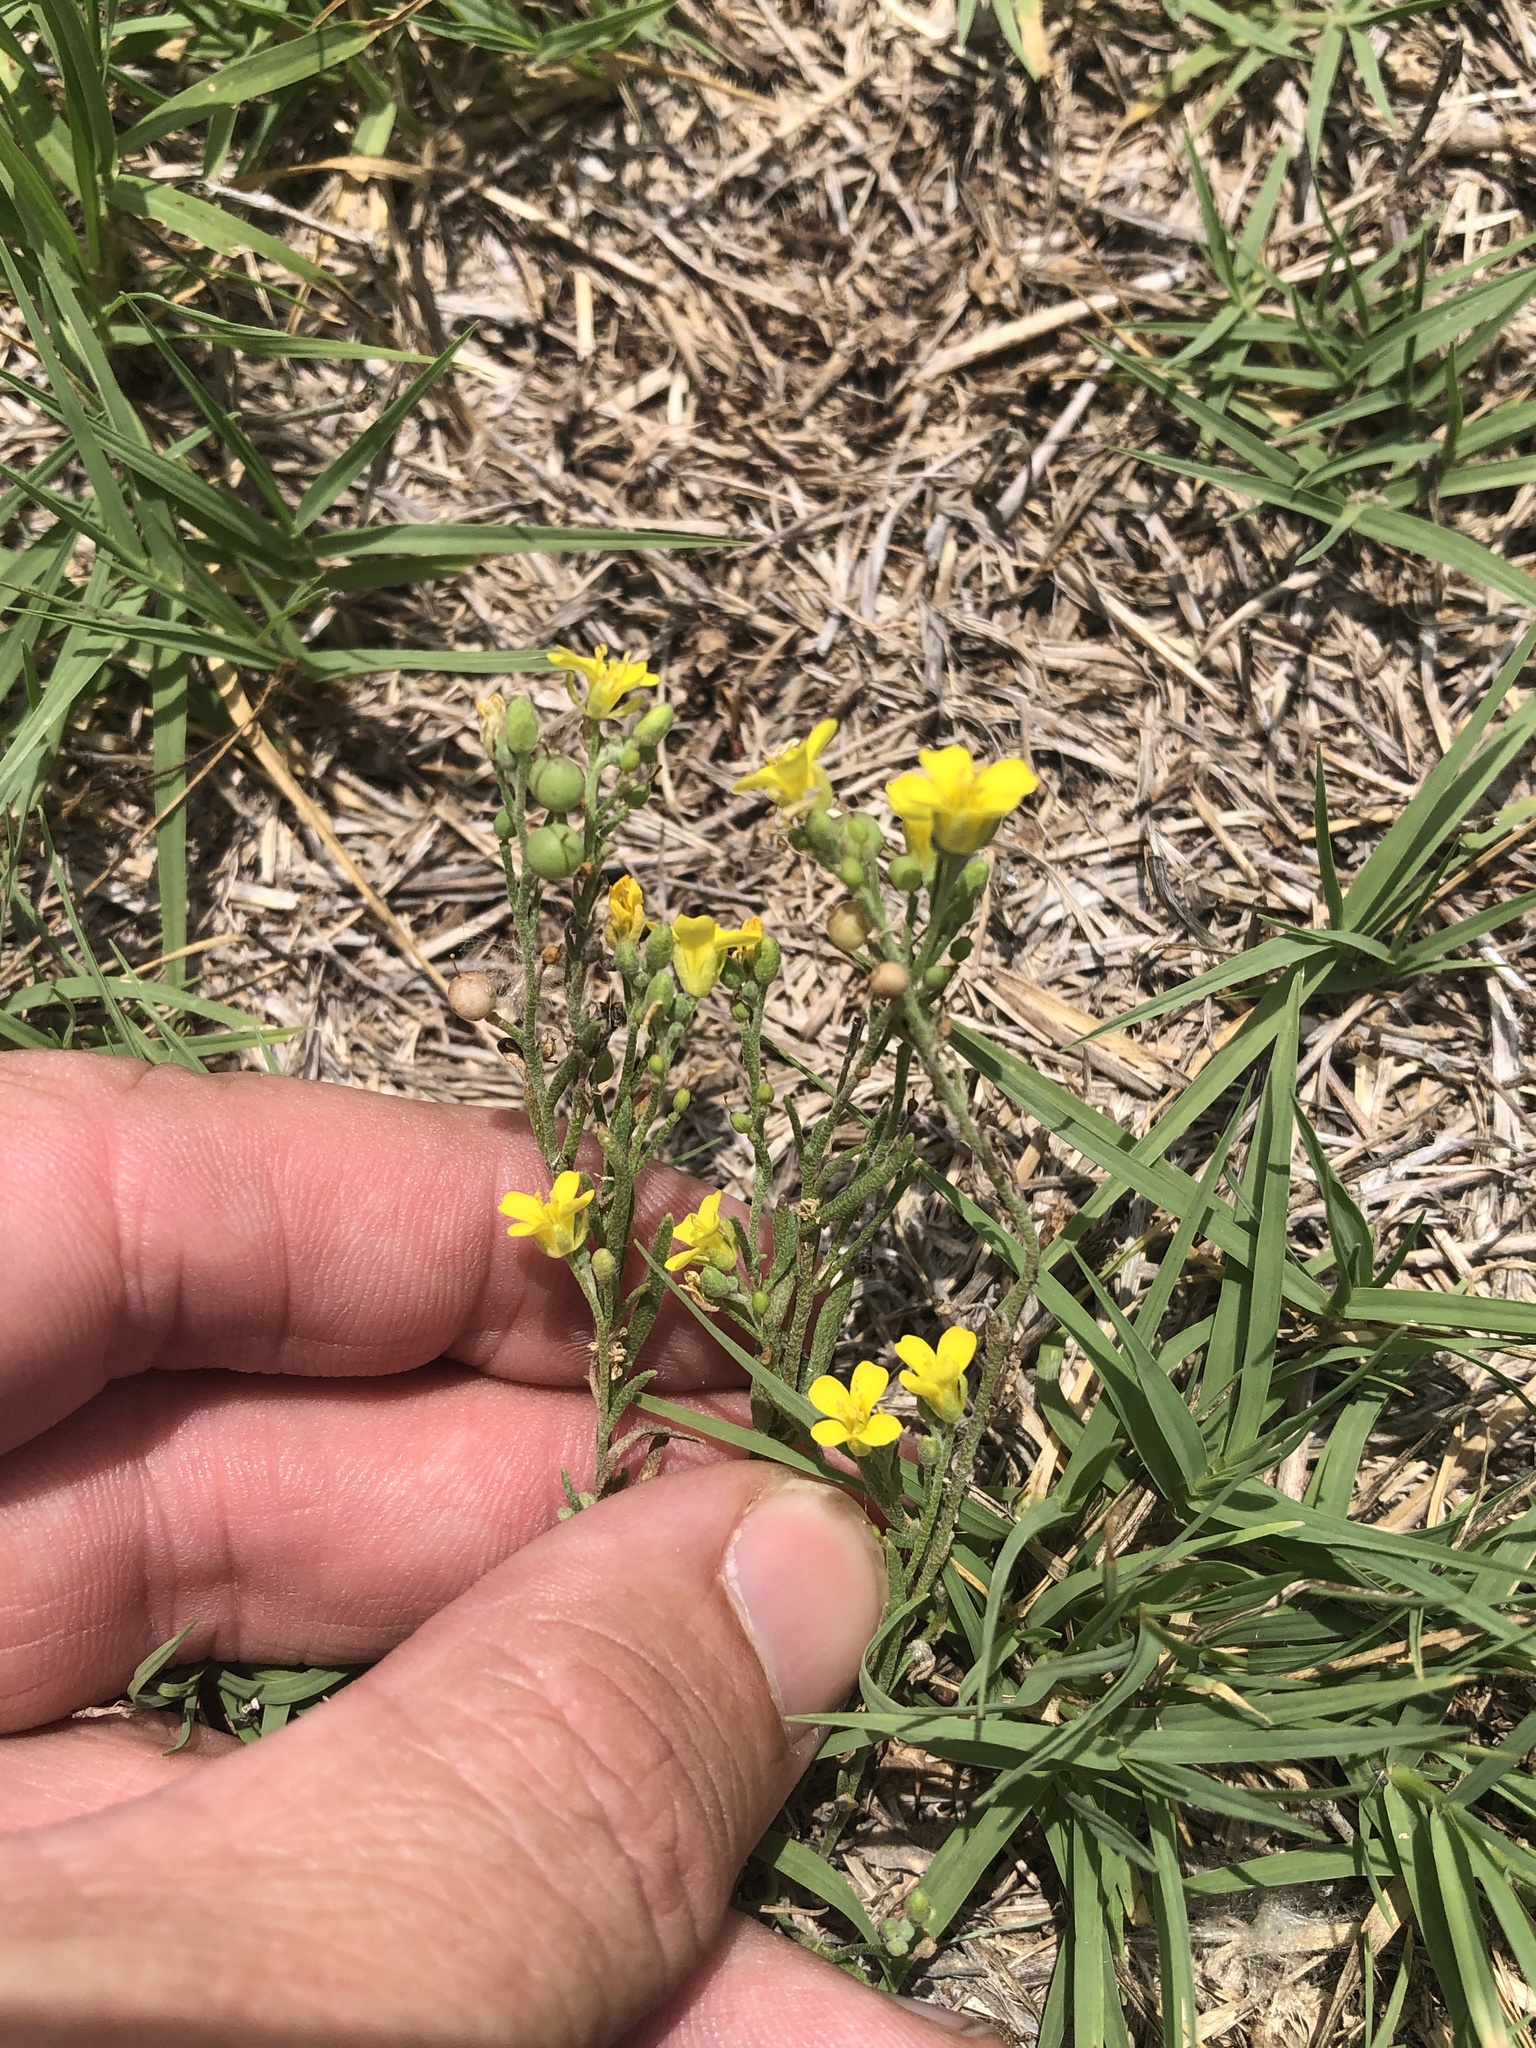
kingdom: Plantae
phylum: Tracheophyta
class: Magnoliopsida
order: Brassicales
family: Brassicaceae
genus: Physaria
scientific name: Physaria gordonii
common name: Gordon's bladderpod
